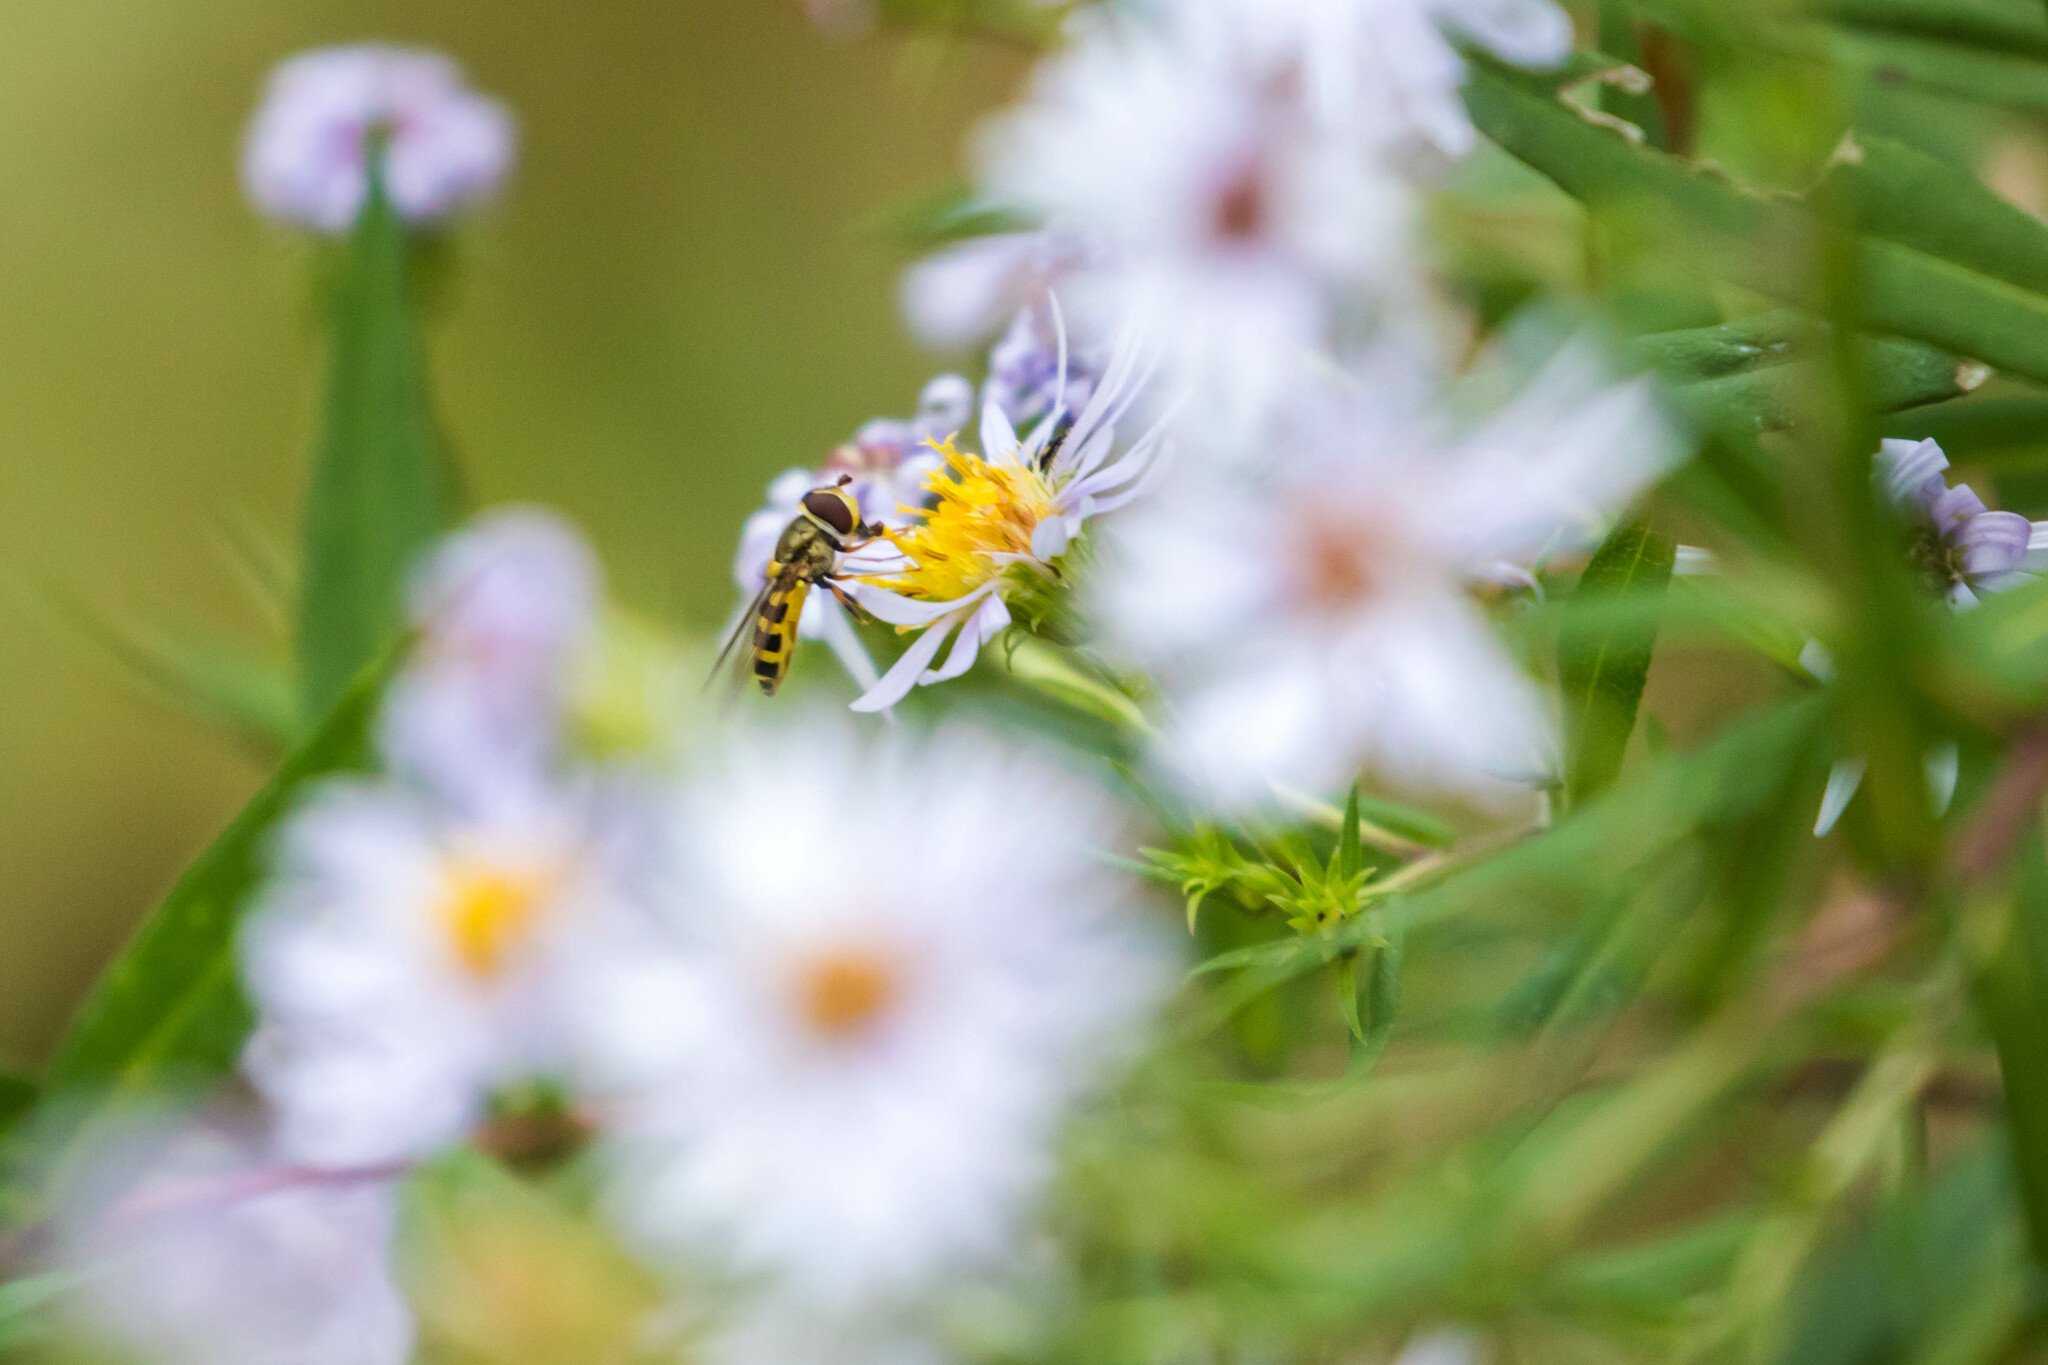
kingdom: Animalia
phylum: Arthropoda
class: Insecta
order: Diptera
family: Syrphidae
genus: Syrphus
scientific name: Syrphus rectus
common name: Yellow-legged flower fly
